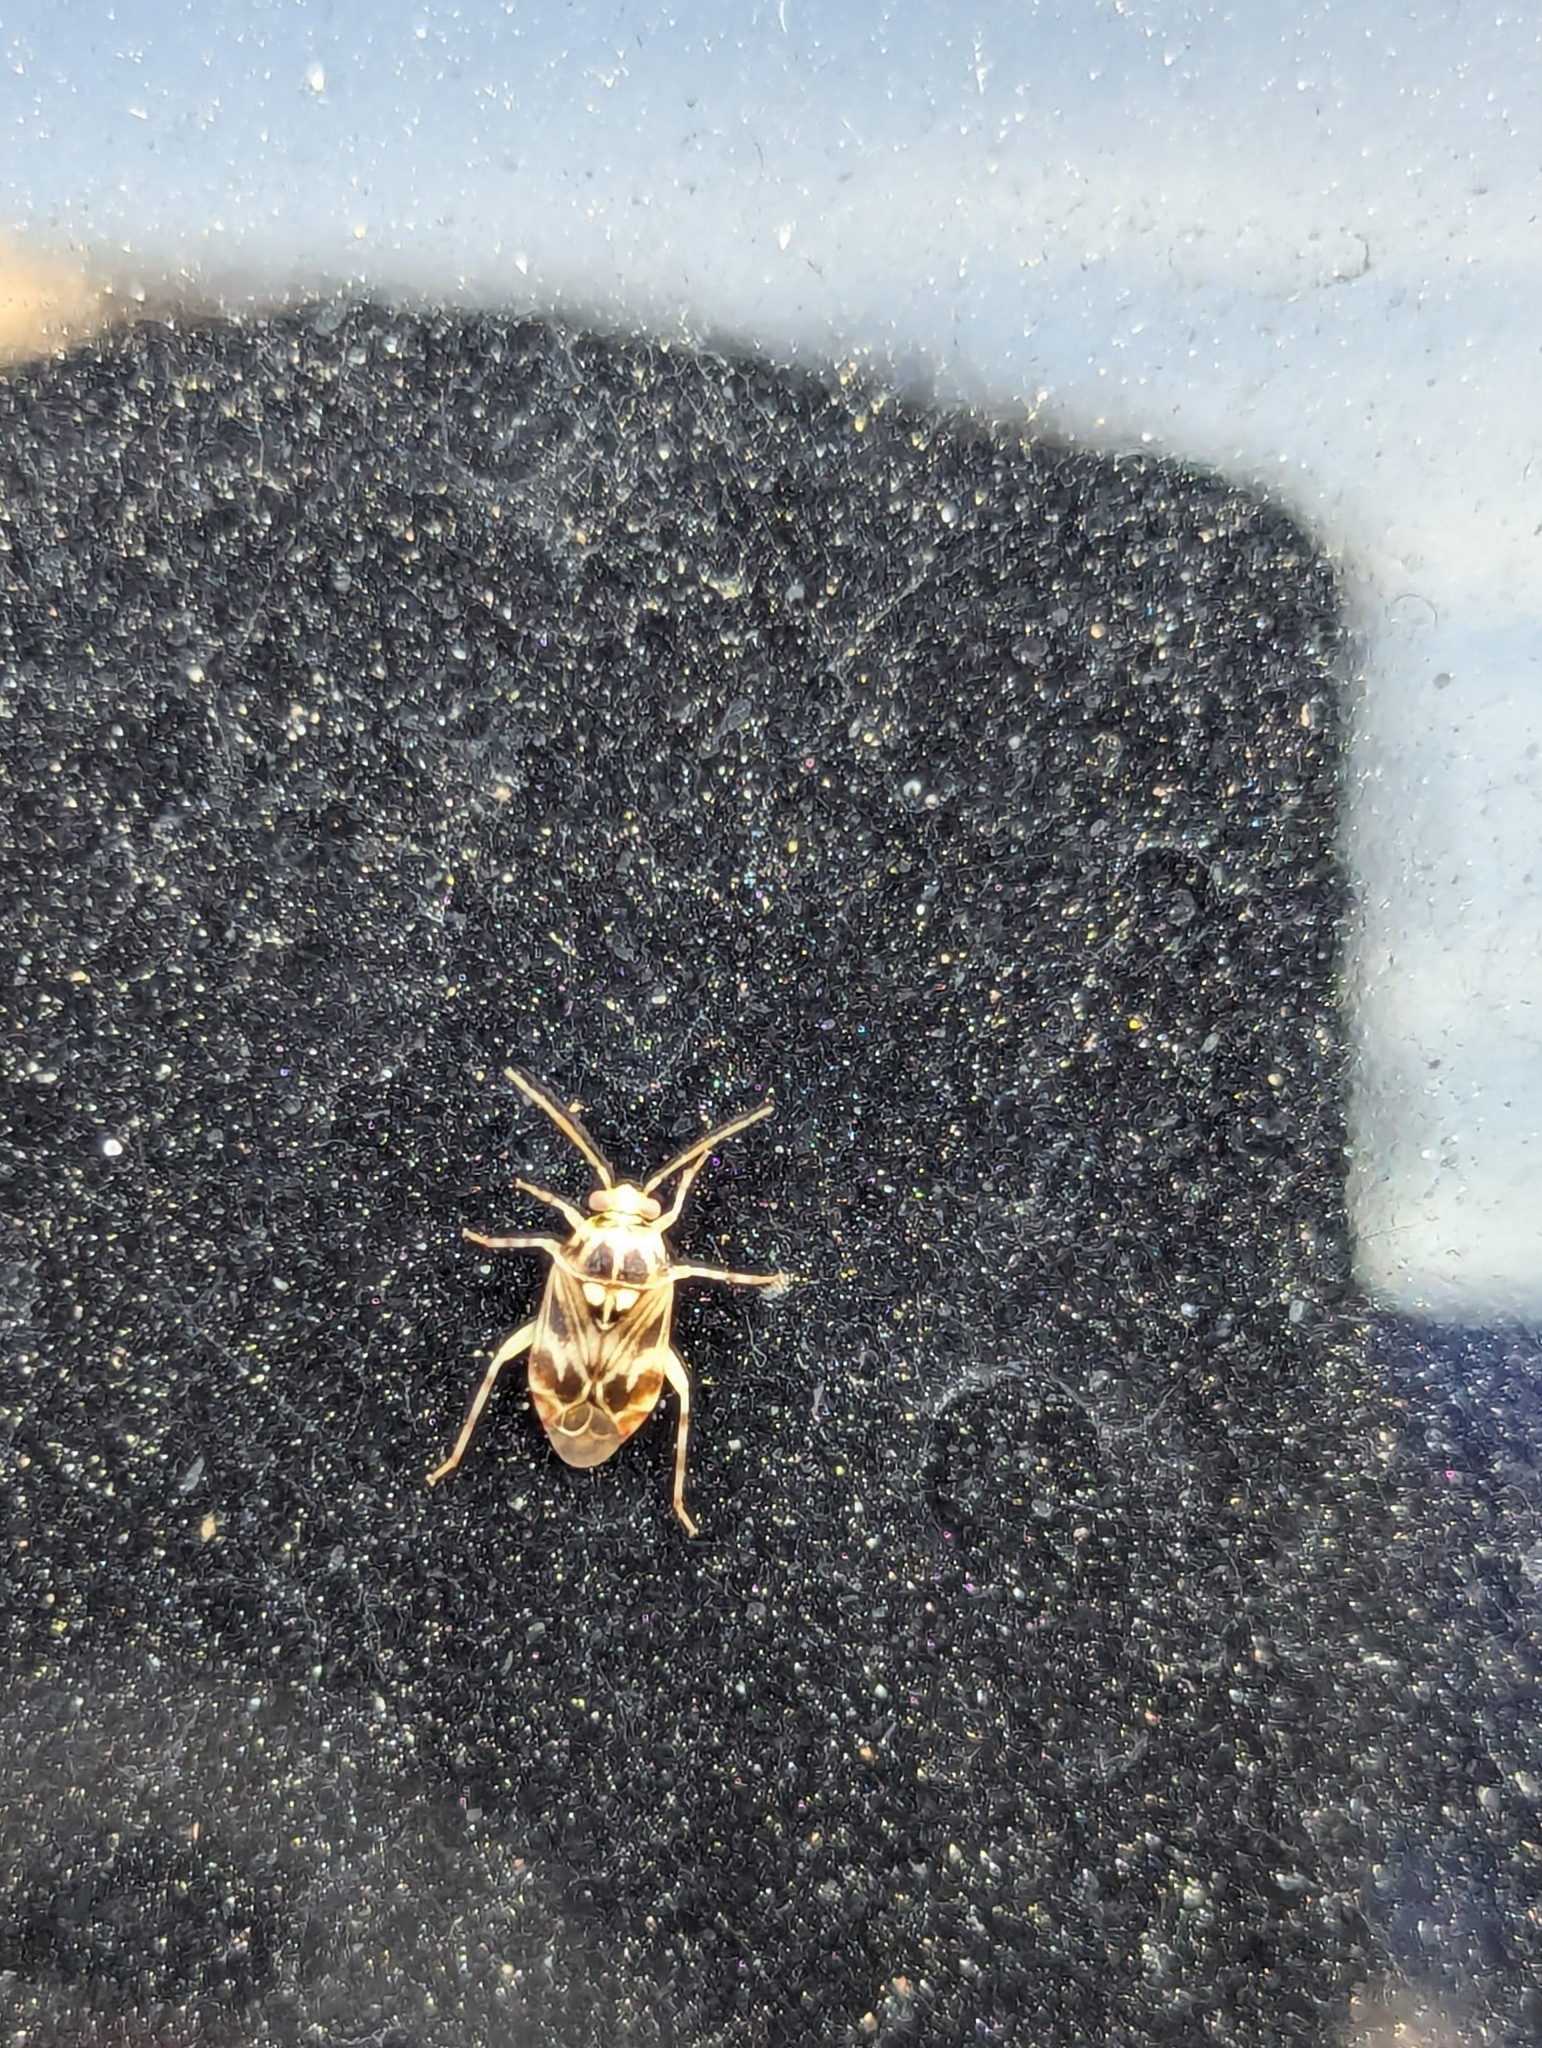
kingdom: Animalia
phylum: Arthropoda
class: Insecta
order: Hemiptera
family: Miridae
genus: Tropidosteptes
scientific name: Tropidosteptes quercicola
